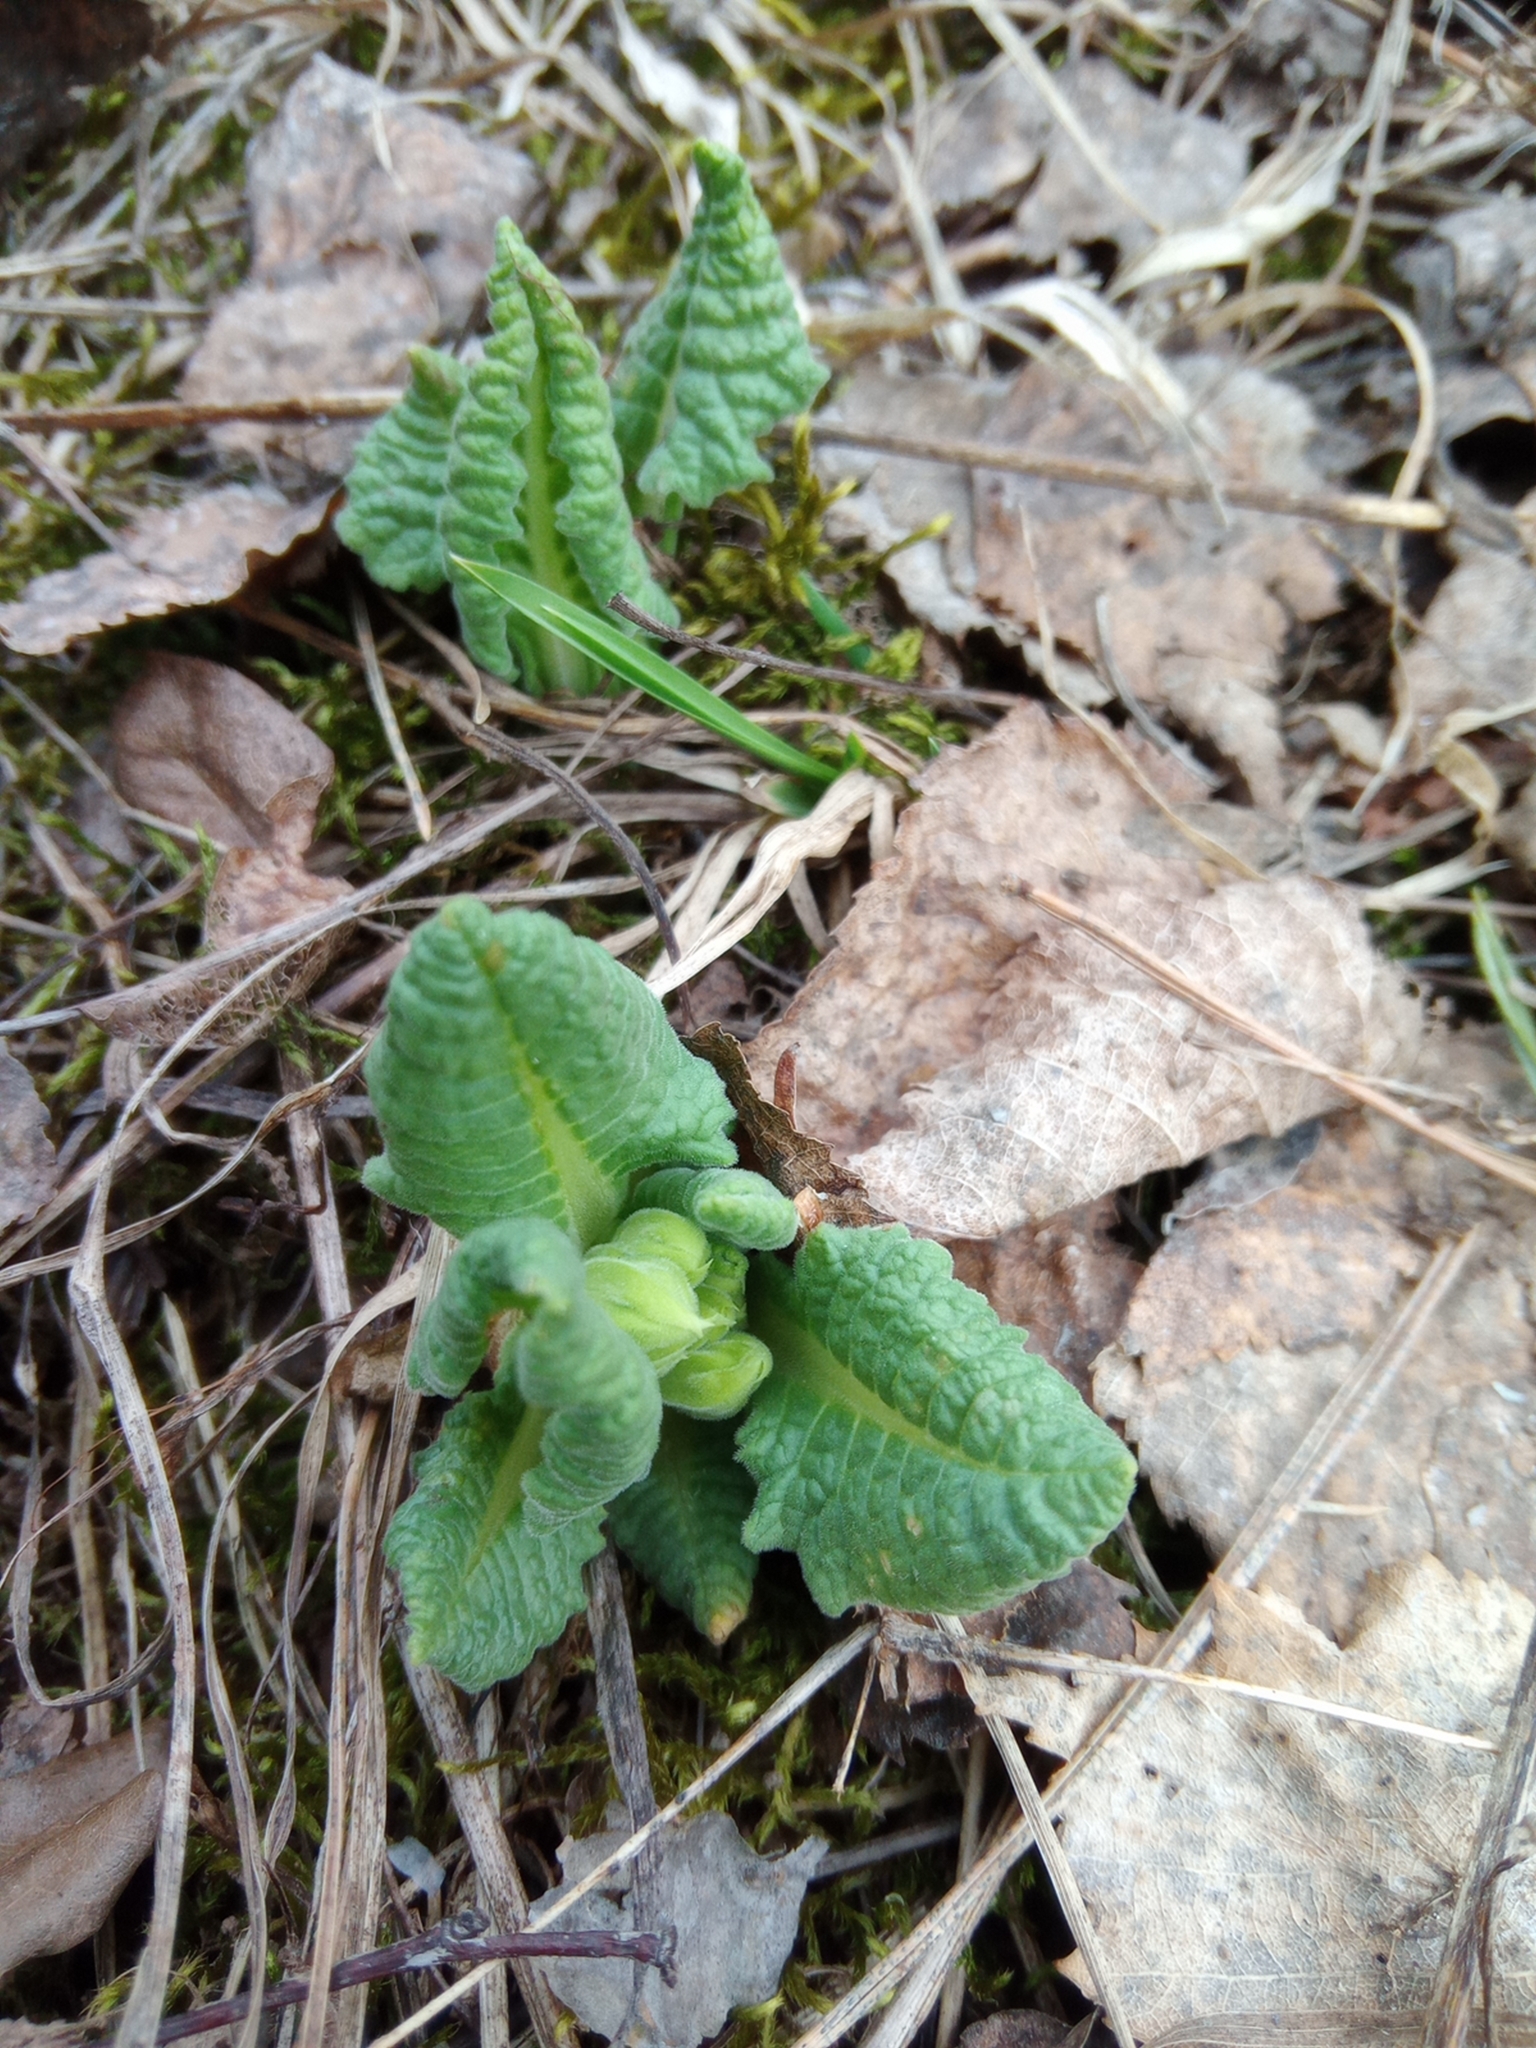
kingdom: Plantae
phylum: Tracheophyta
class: Magnoliopsida
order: Ericales
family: Primulaceae
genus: Primula
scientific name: Primula veris
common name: Cowslip
